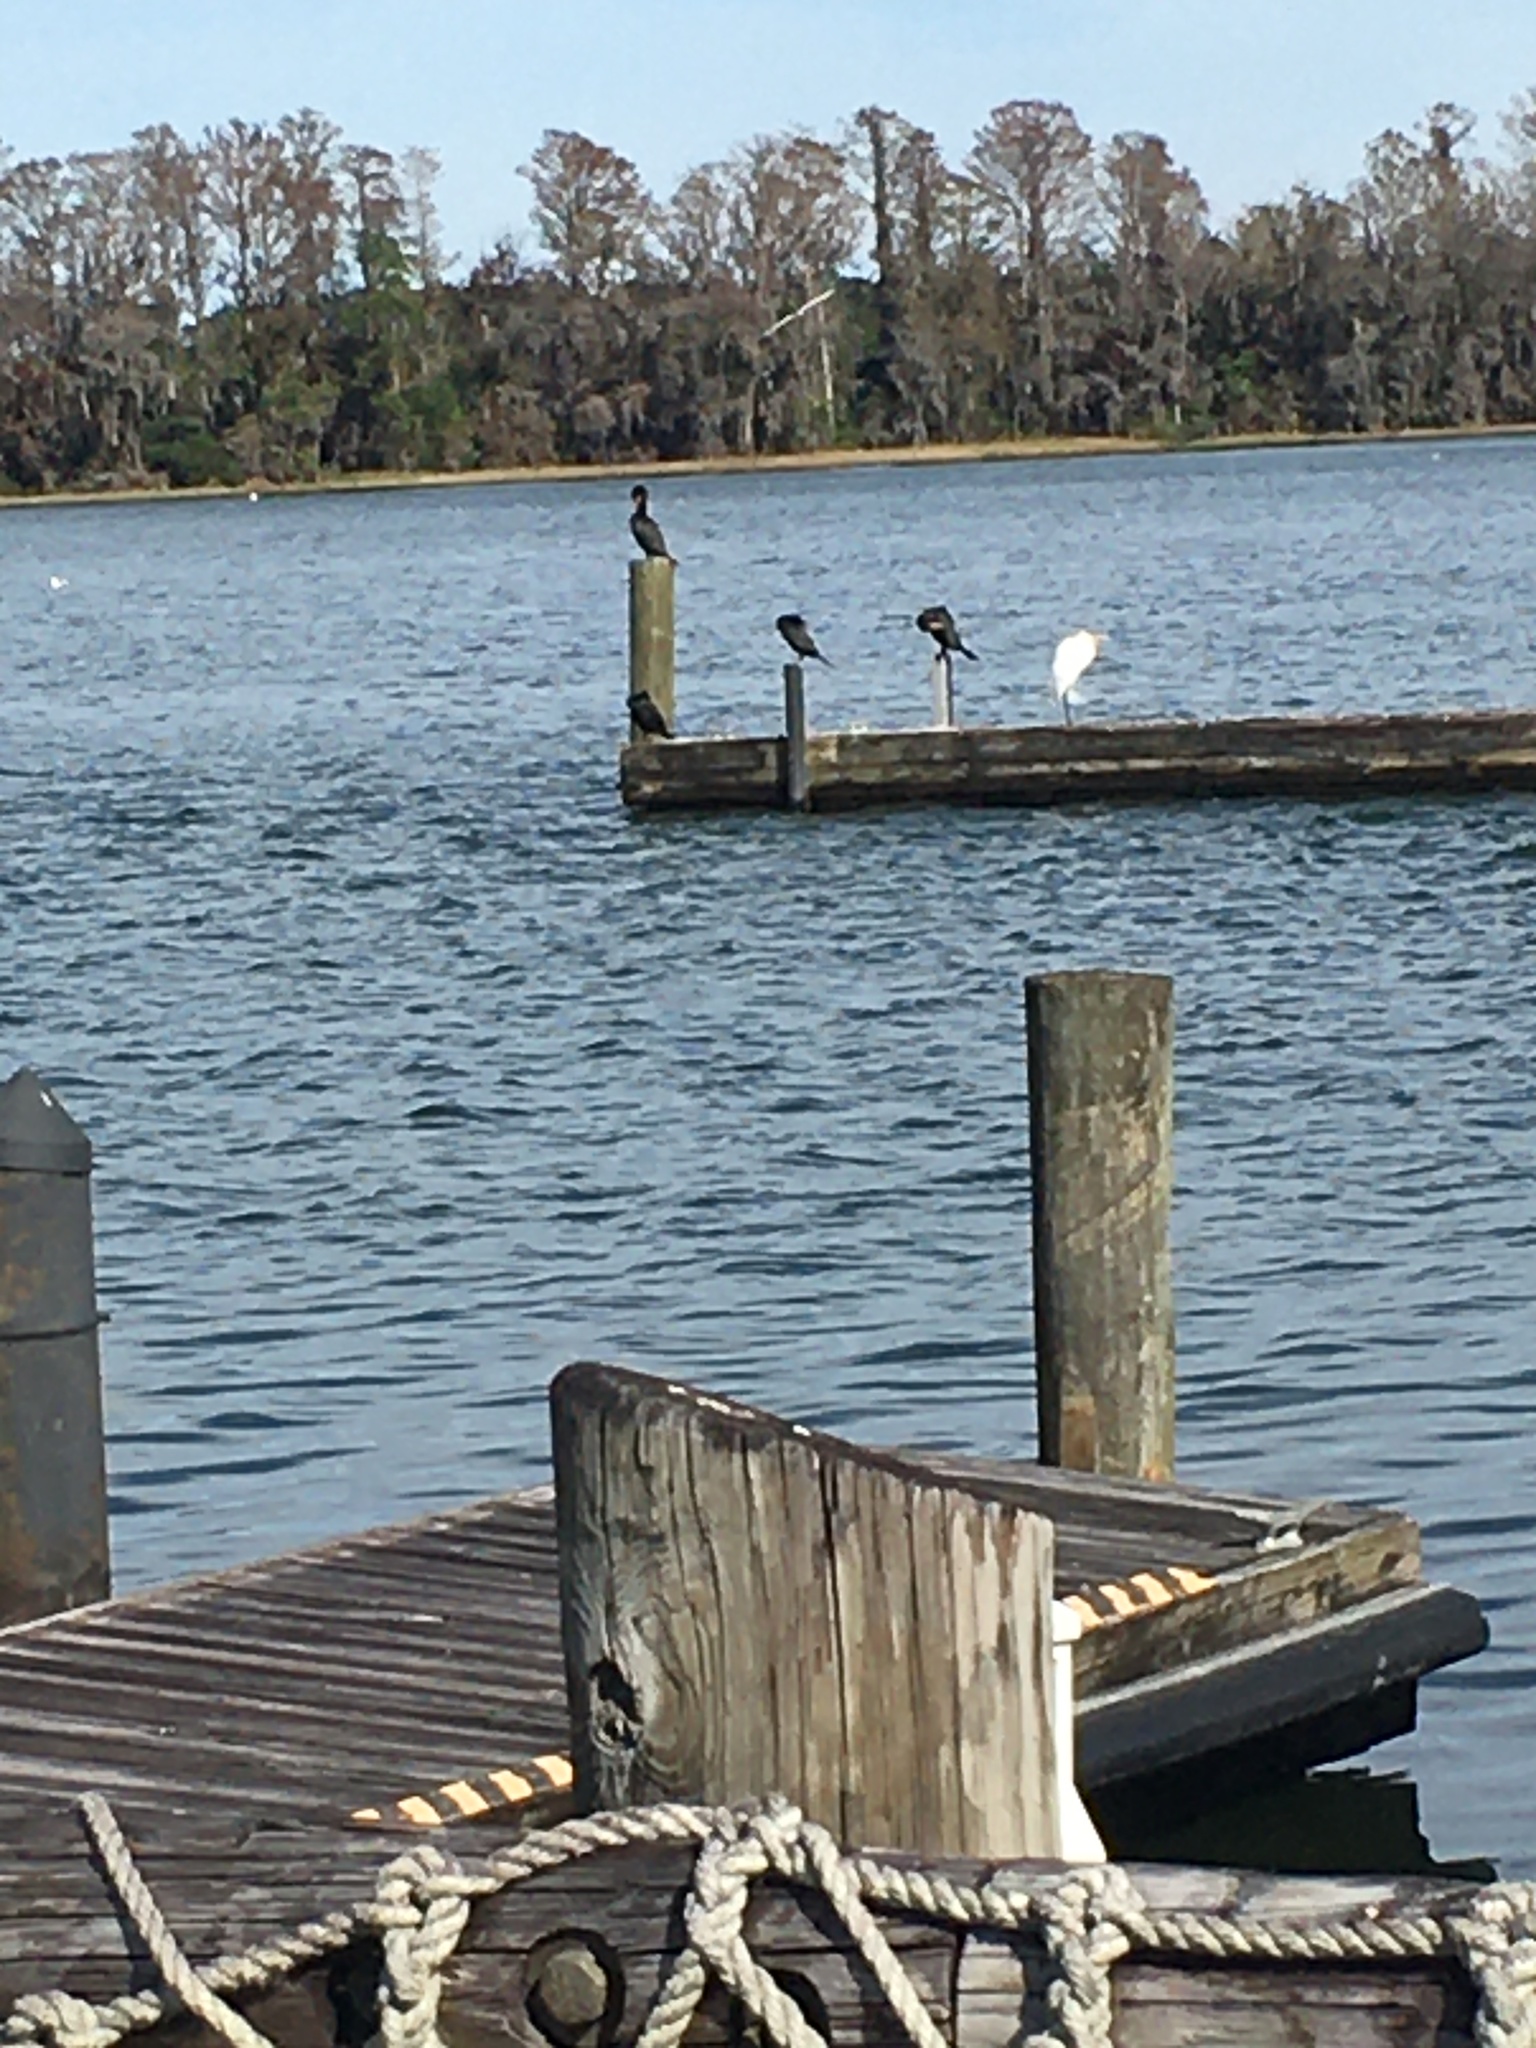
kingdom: Animalia
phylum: Chordata
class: Aves
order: Suliformes
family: Phalacrocoracidae
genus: Phalacrocorax
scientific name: Phalacrocorax auritus
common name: Double-crested cormorant
